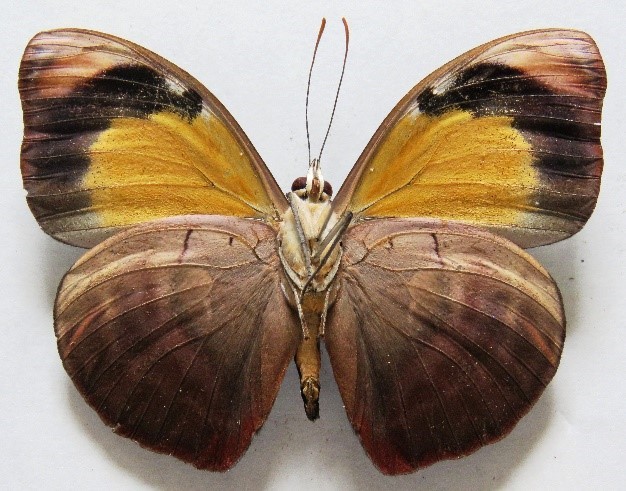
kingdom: Animalia
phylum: Arthropoda
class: Insecta
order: Lepidoptera
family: Nymphalidae
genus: Catonephele
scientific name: Catonephele numilia
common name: Blue-frosted banner
